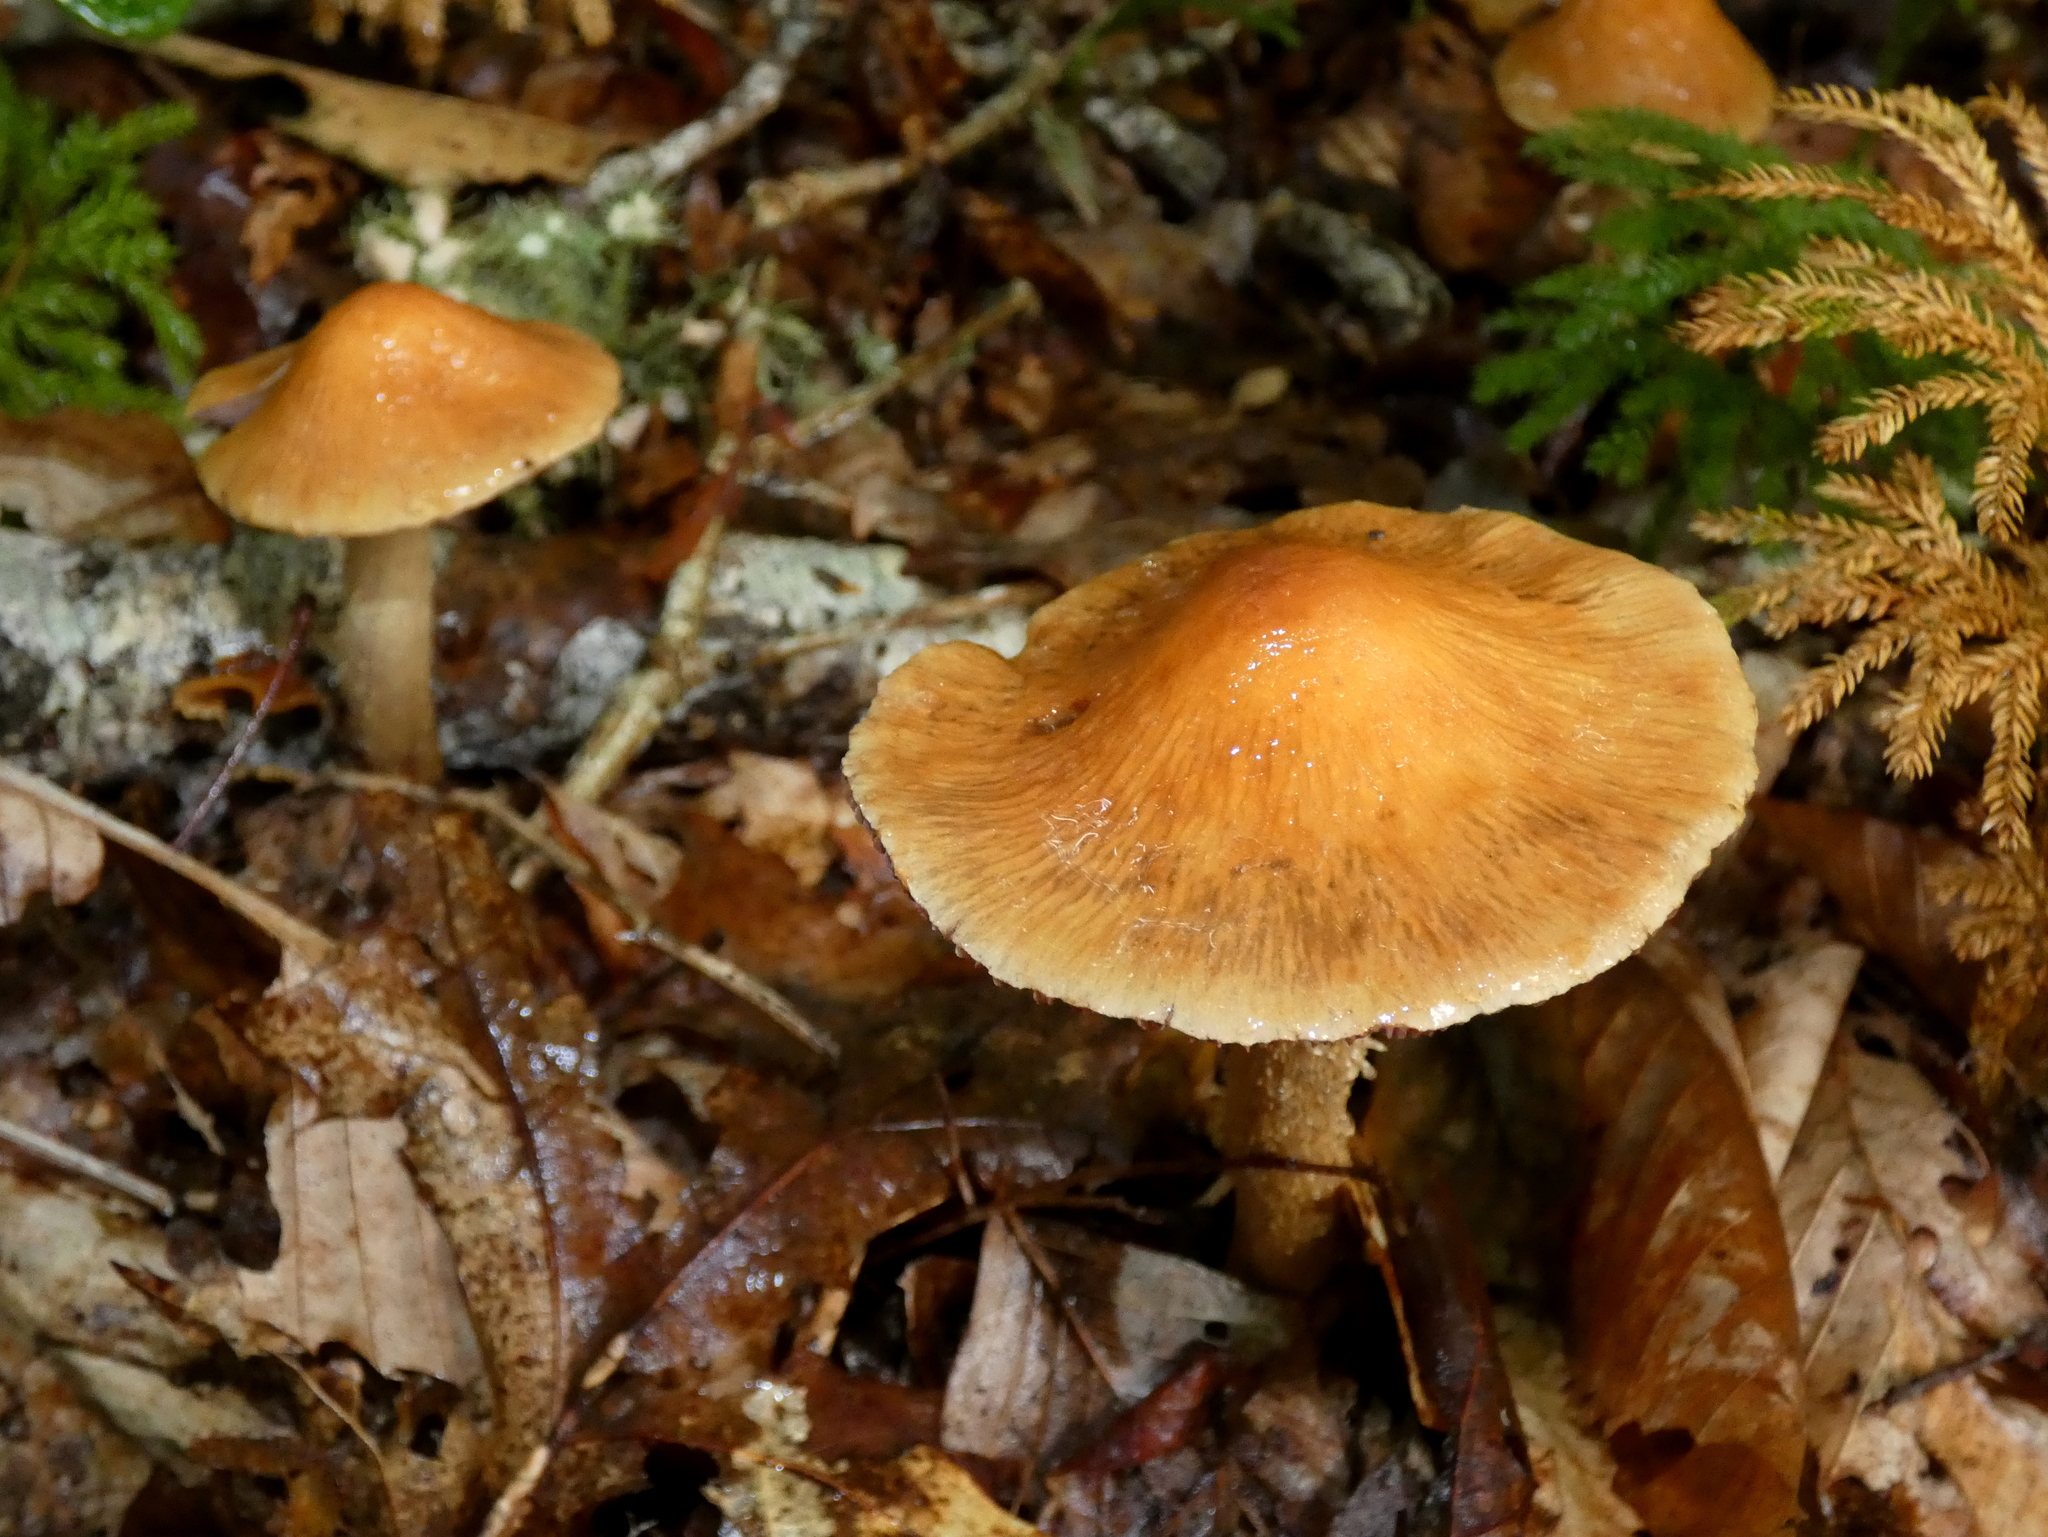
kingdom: Fungi
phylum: Basidiomycota
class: Agaricomycetes
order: Agaricales
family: Cortinariaceae
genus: Cortinarius
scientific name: Cortinarius corrugatus
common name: Wrinkled cortinarius
